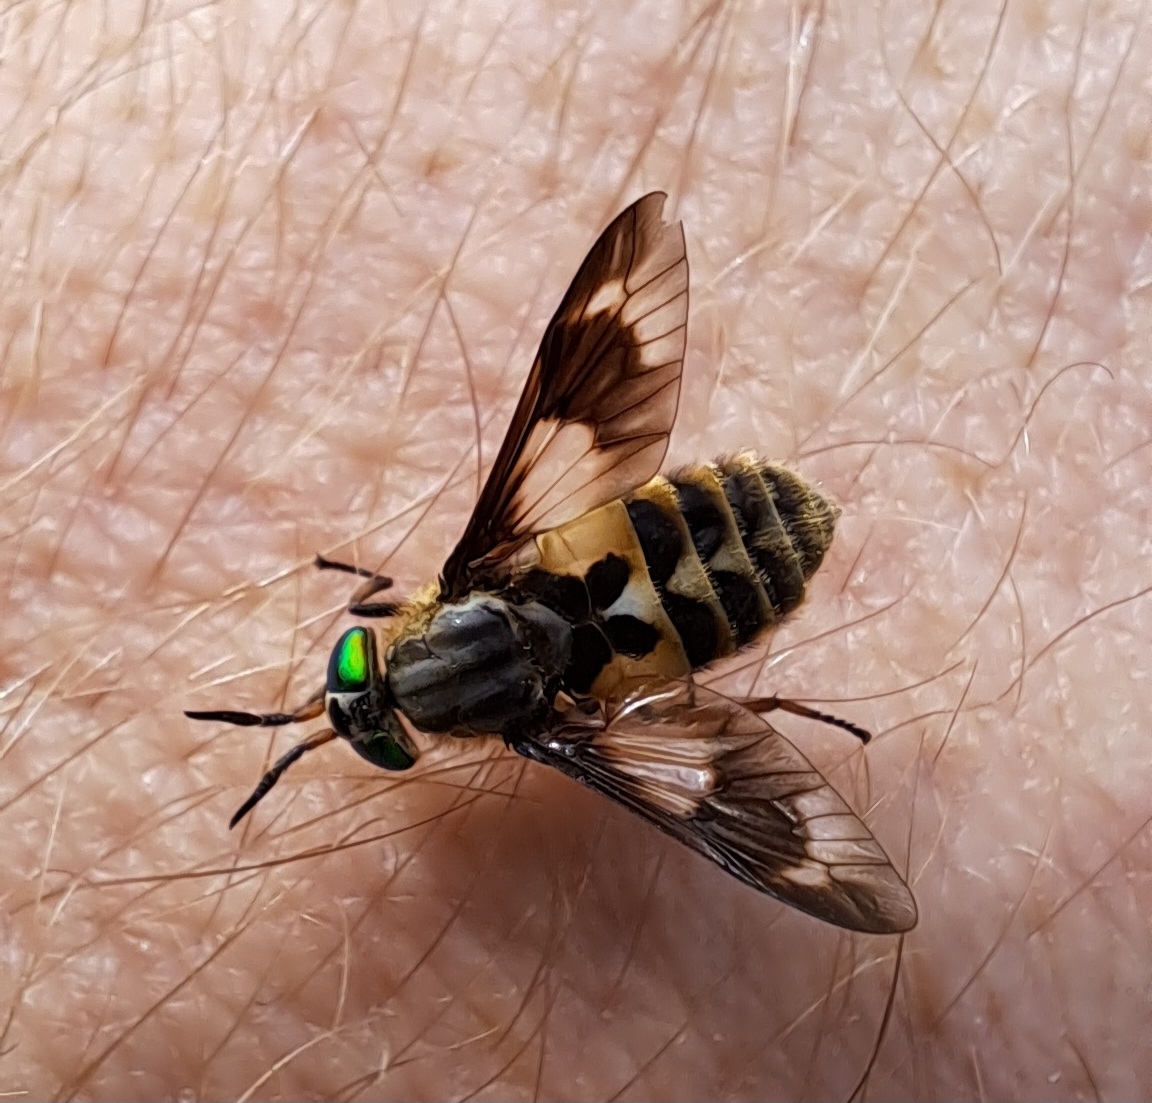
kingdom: Animalia
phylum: Arthropoda
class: Insecta
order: Diptera
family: Tabanidae
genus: Chrysops
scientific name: Chrysops relictus
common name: Twin-lobed deerfly
